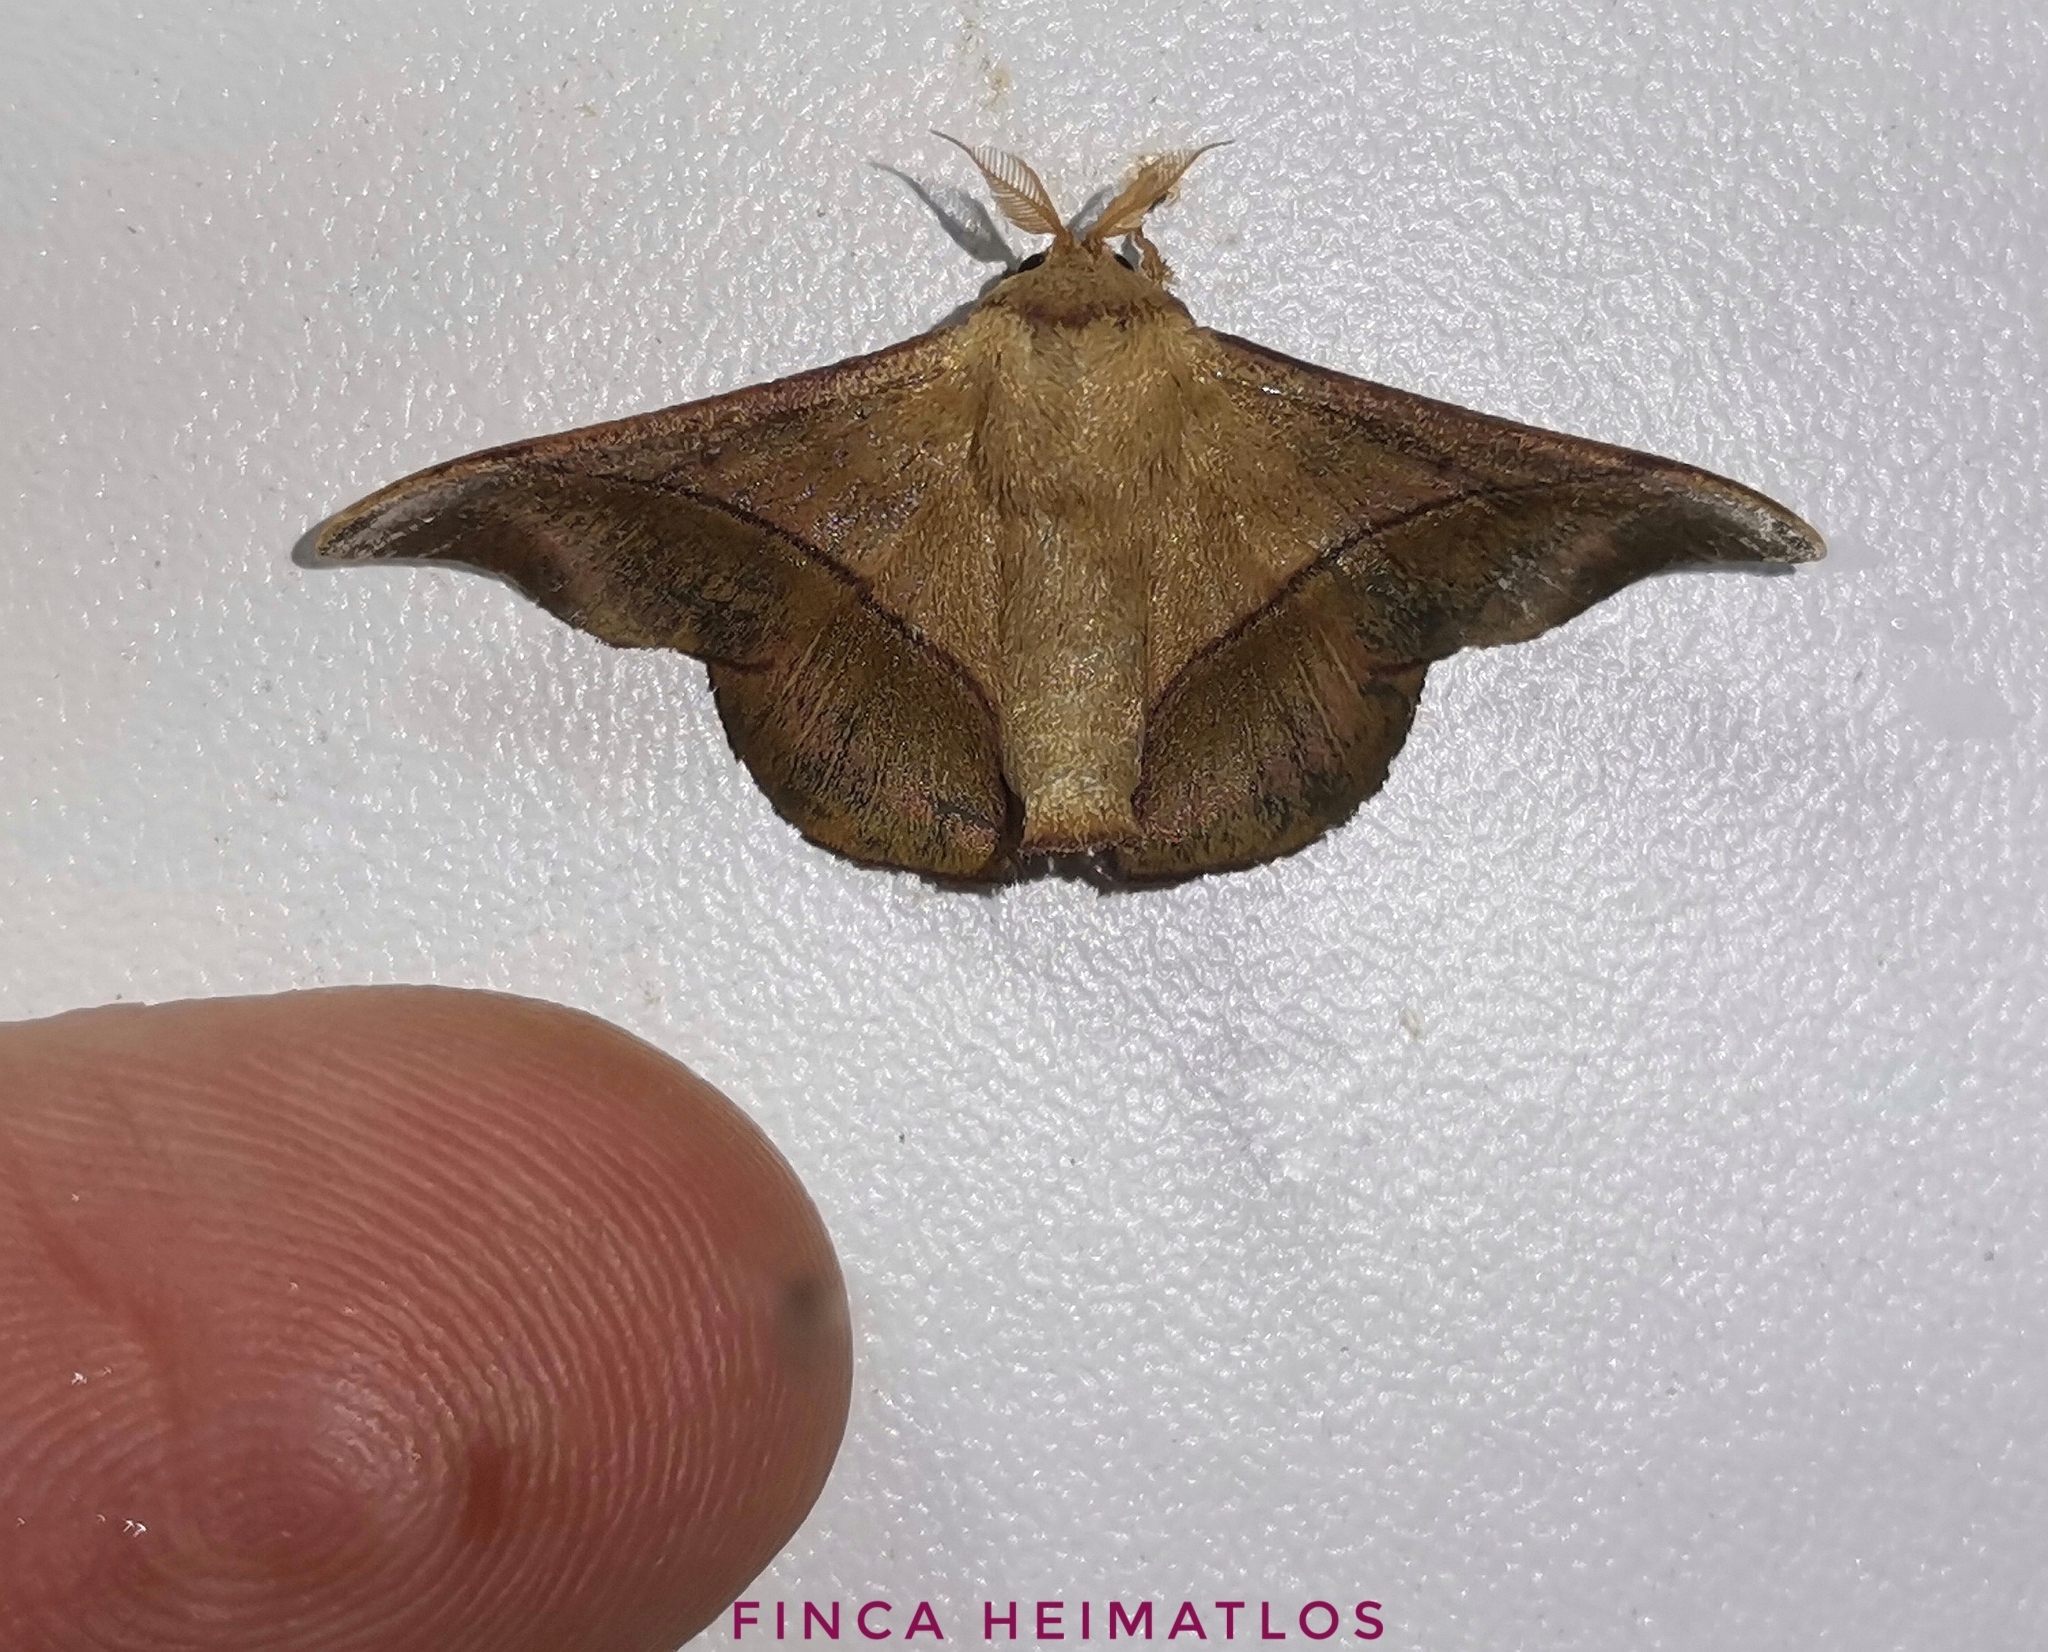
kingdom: Animalia
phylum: Arthropoda
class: Insecta
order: Lepidoptera
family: Mimallonidae
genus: Alheita
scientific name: Alheita adelitae
